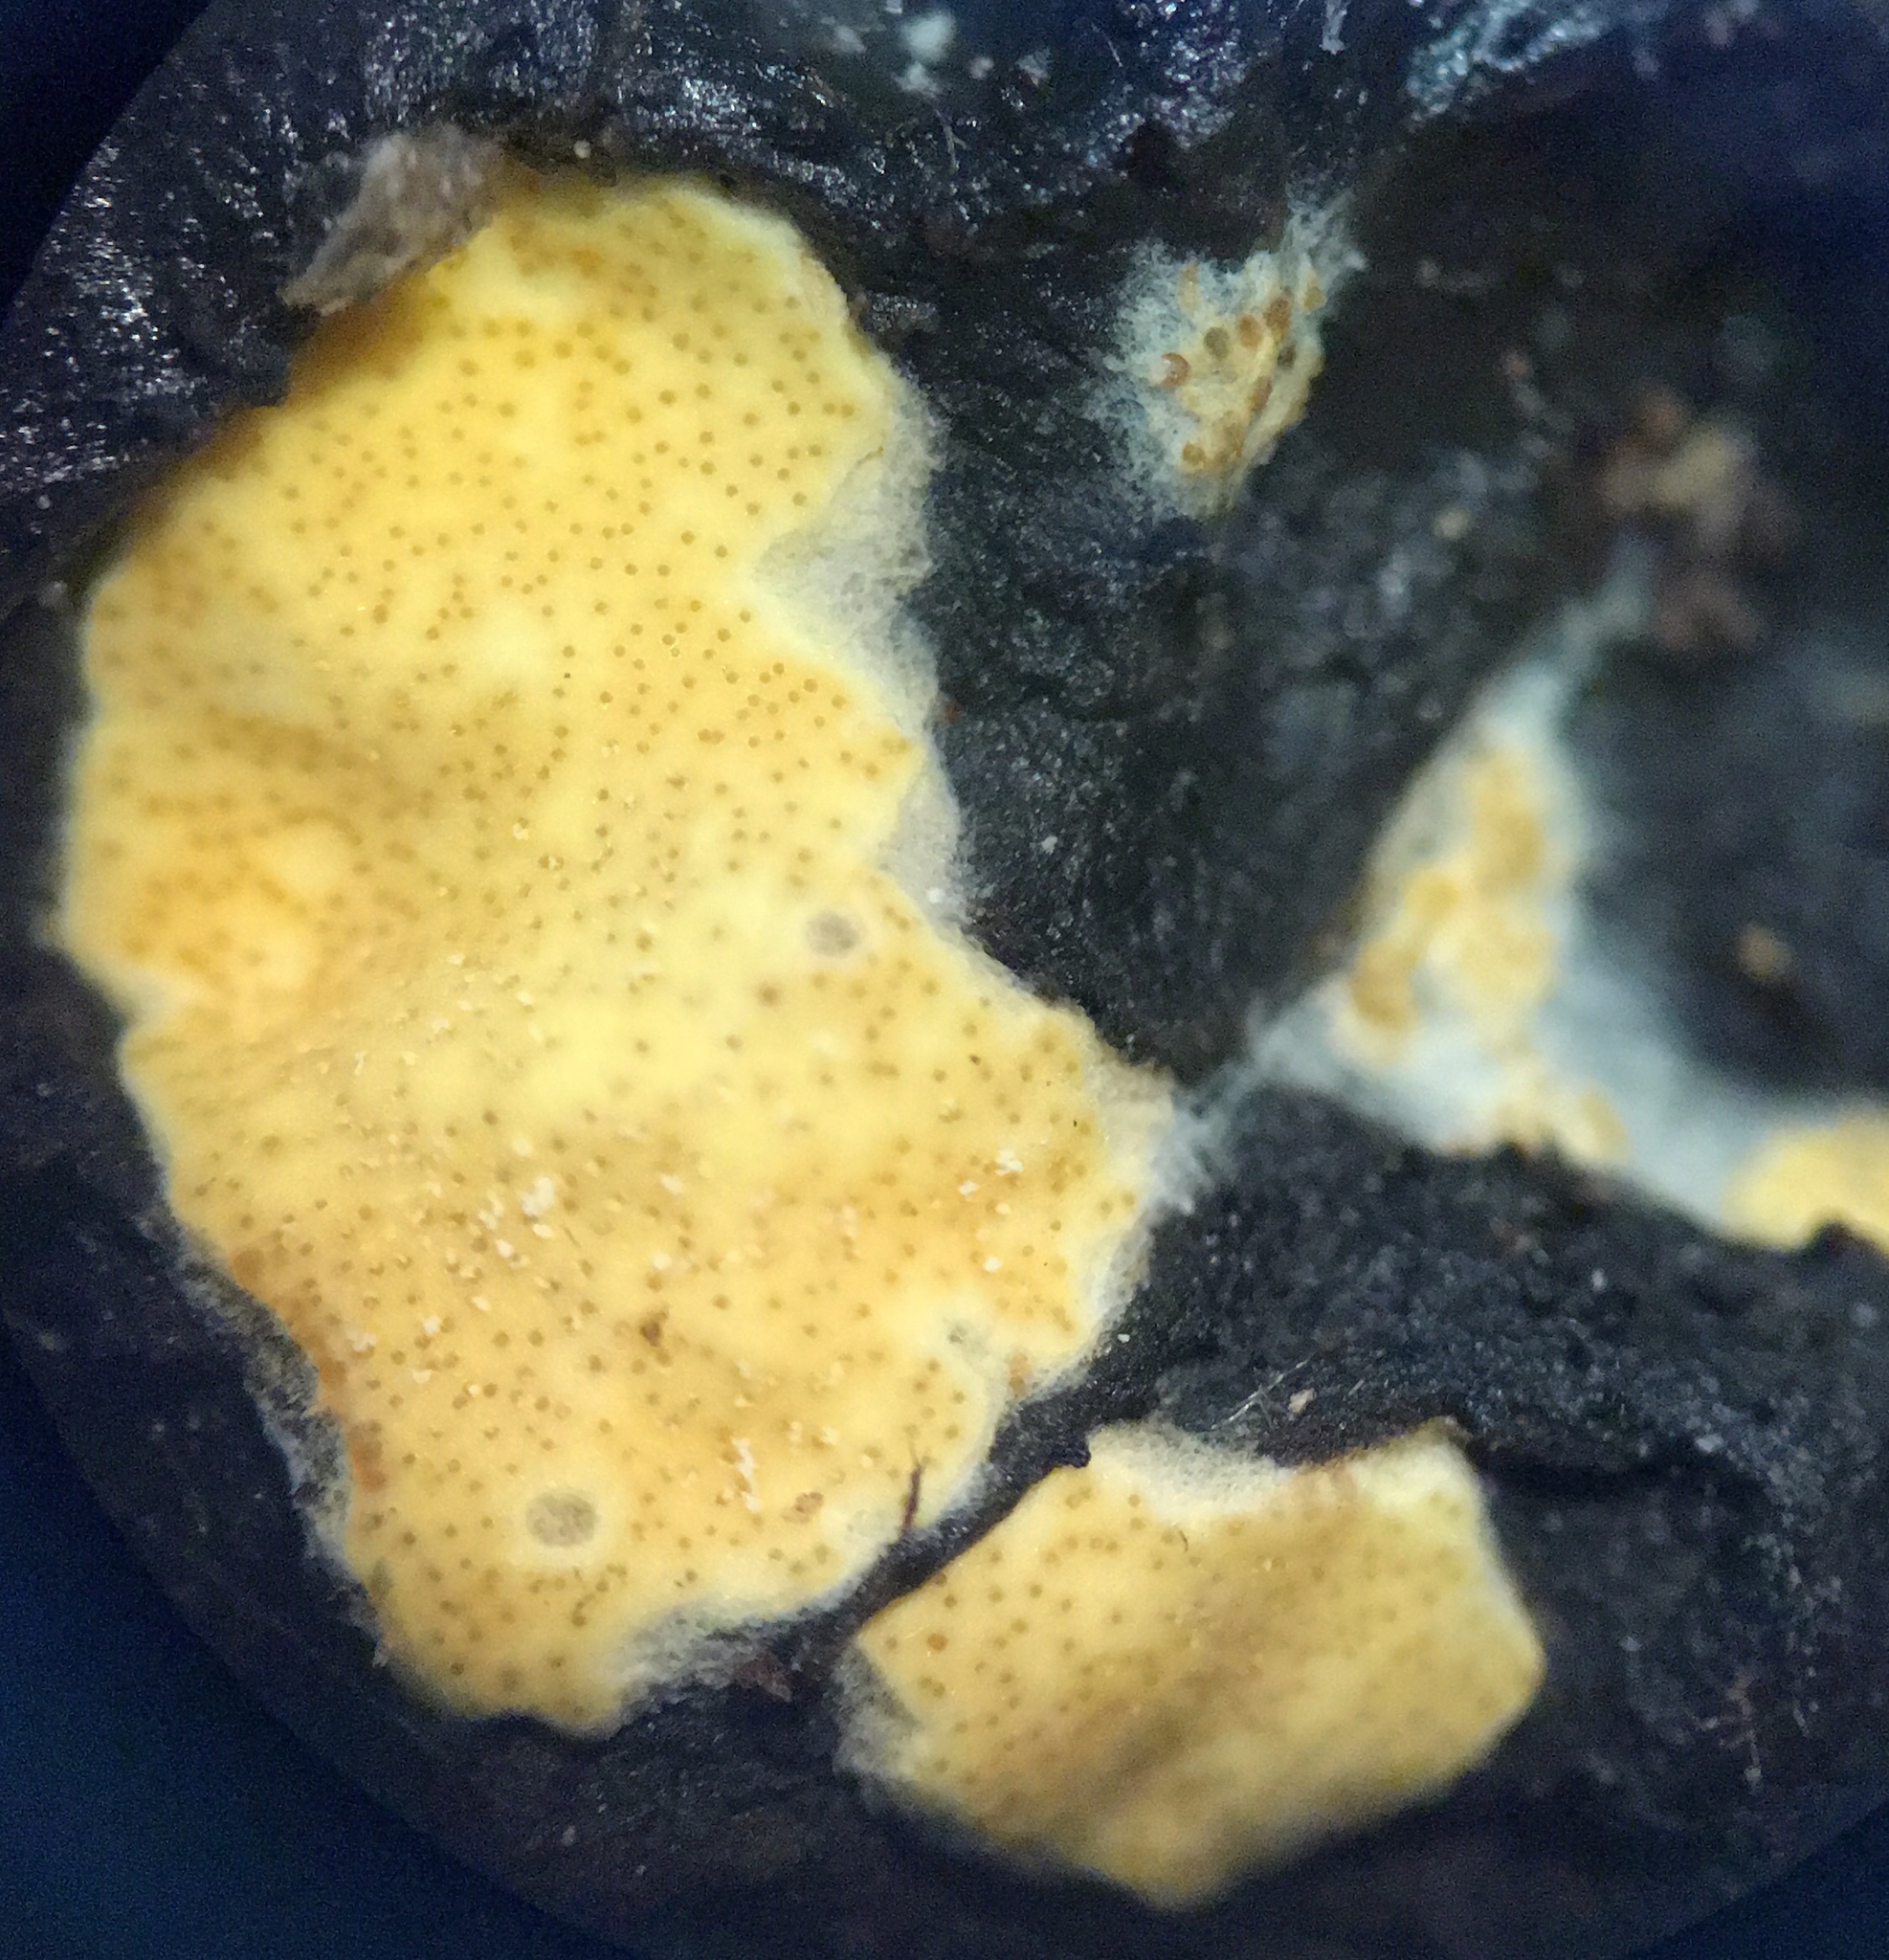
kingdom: Fungi
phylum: Ascomycota
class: Sordariomycetes
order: Hypocreales
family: Hypocreaceae
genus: Trichoderma
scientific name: Trichoderma sulphureum
